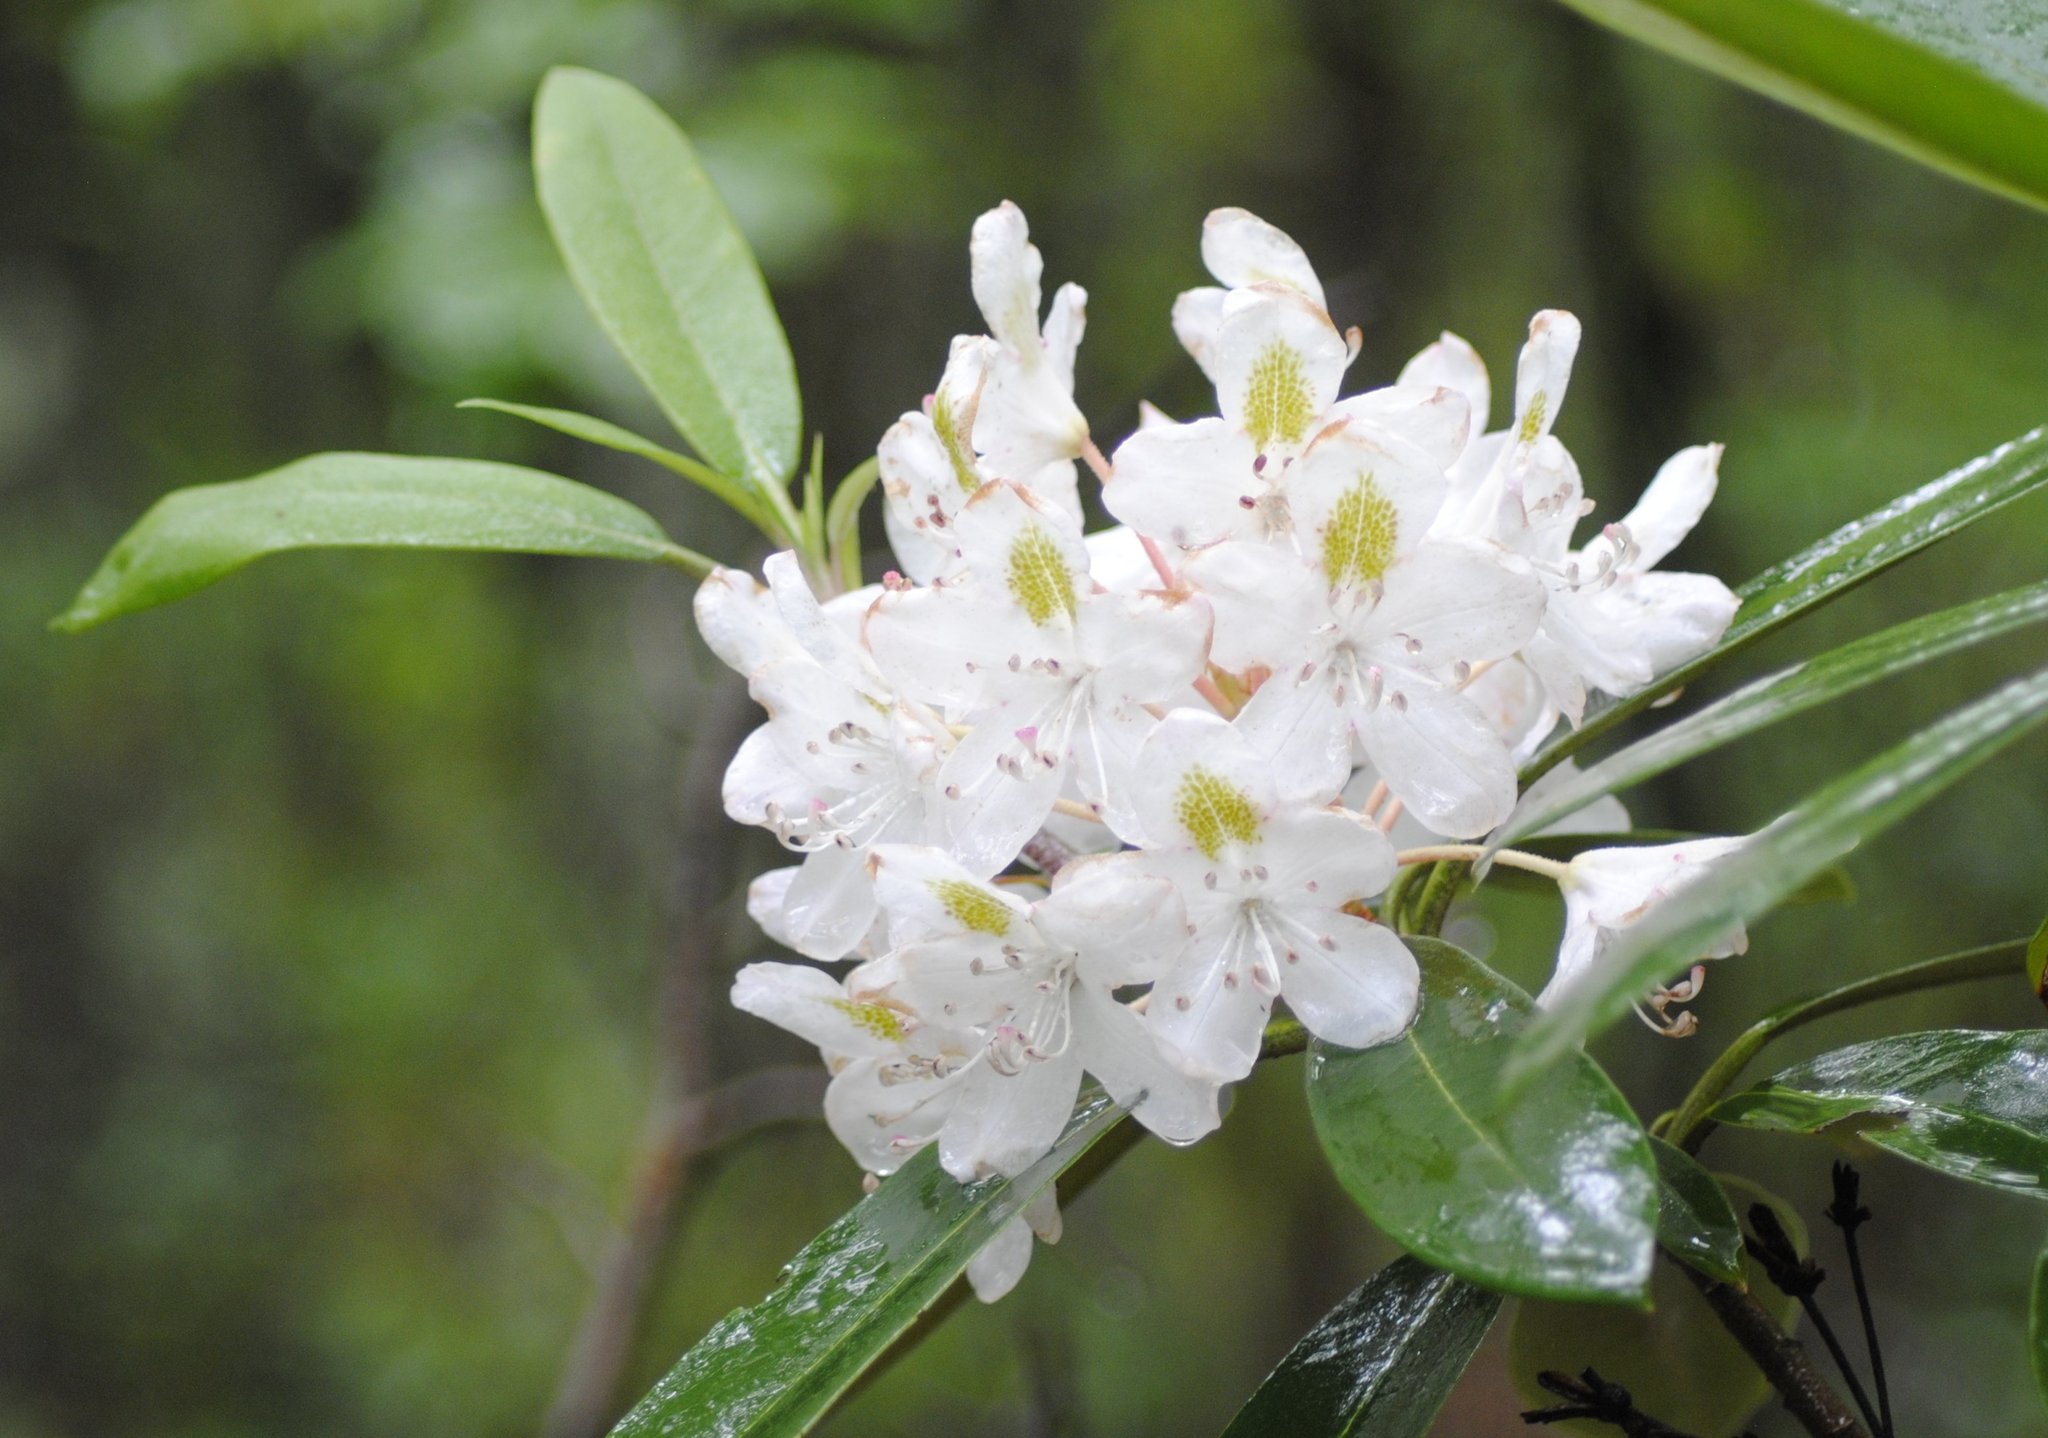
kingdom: Plantae
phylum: Tracheophyta
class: Magnoliopsida
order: Ericales
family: Ericaceae
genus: Rhododendron
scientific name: Rhododendron maximum
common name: Great rhododendron
